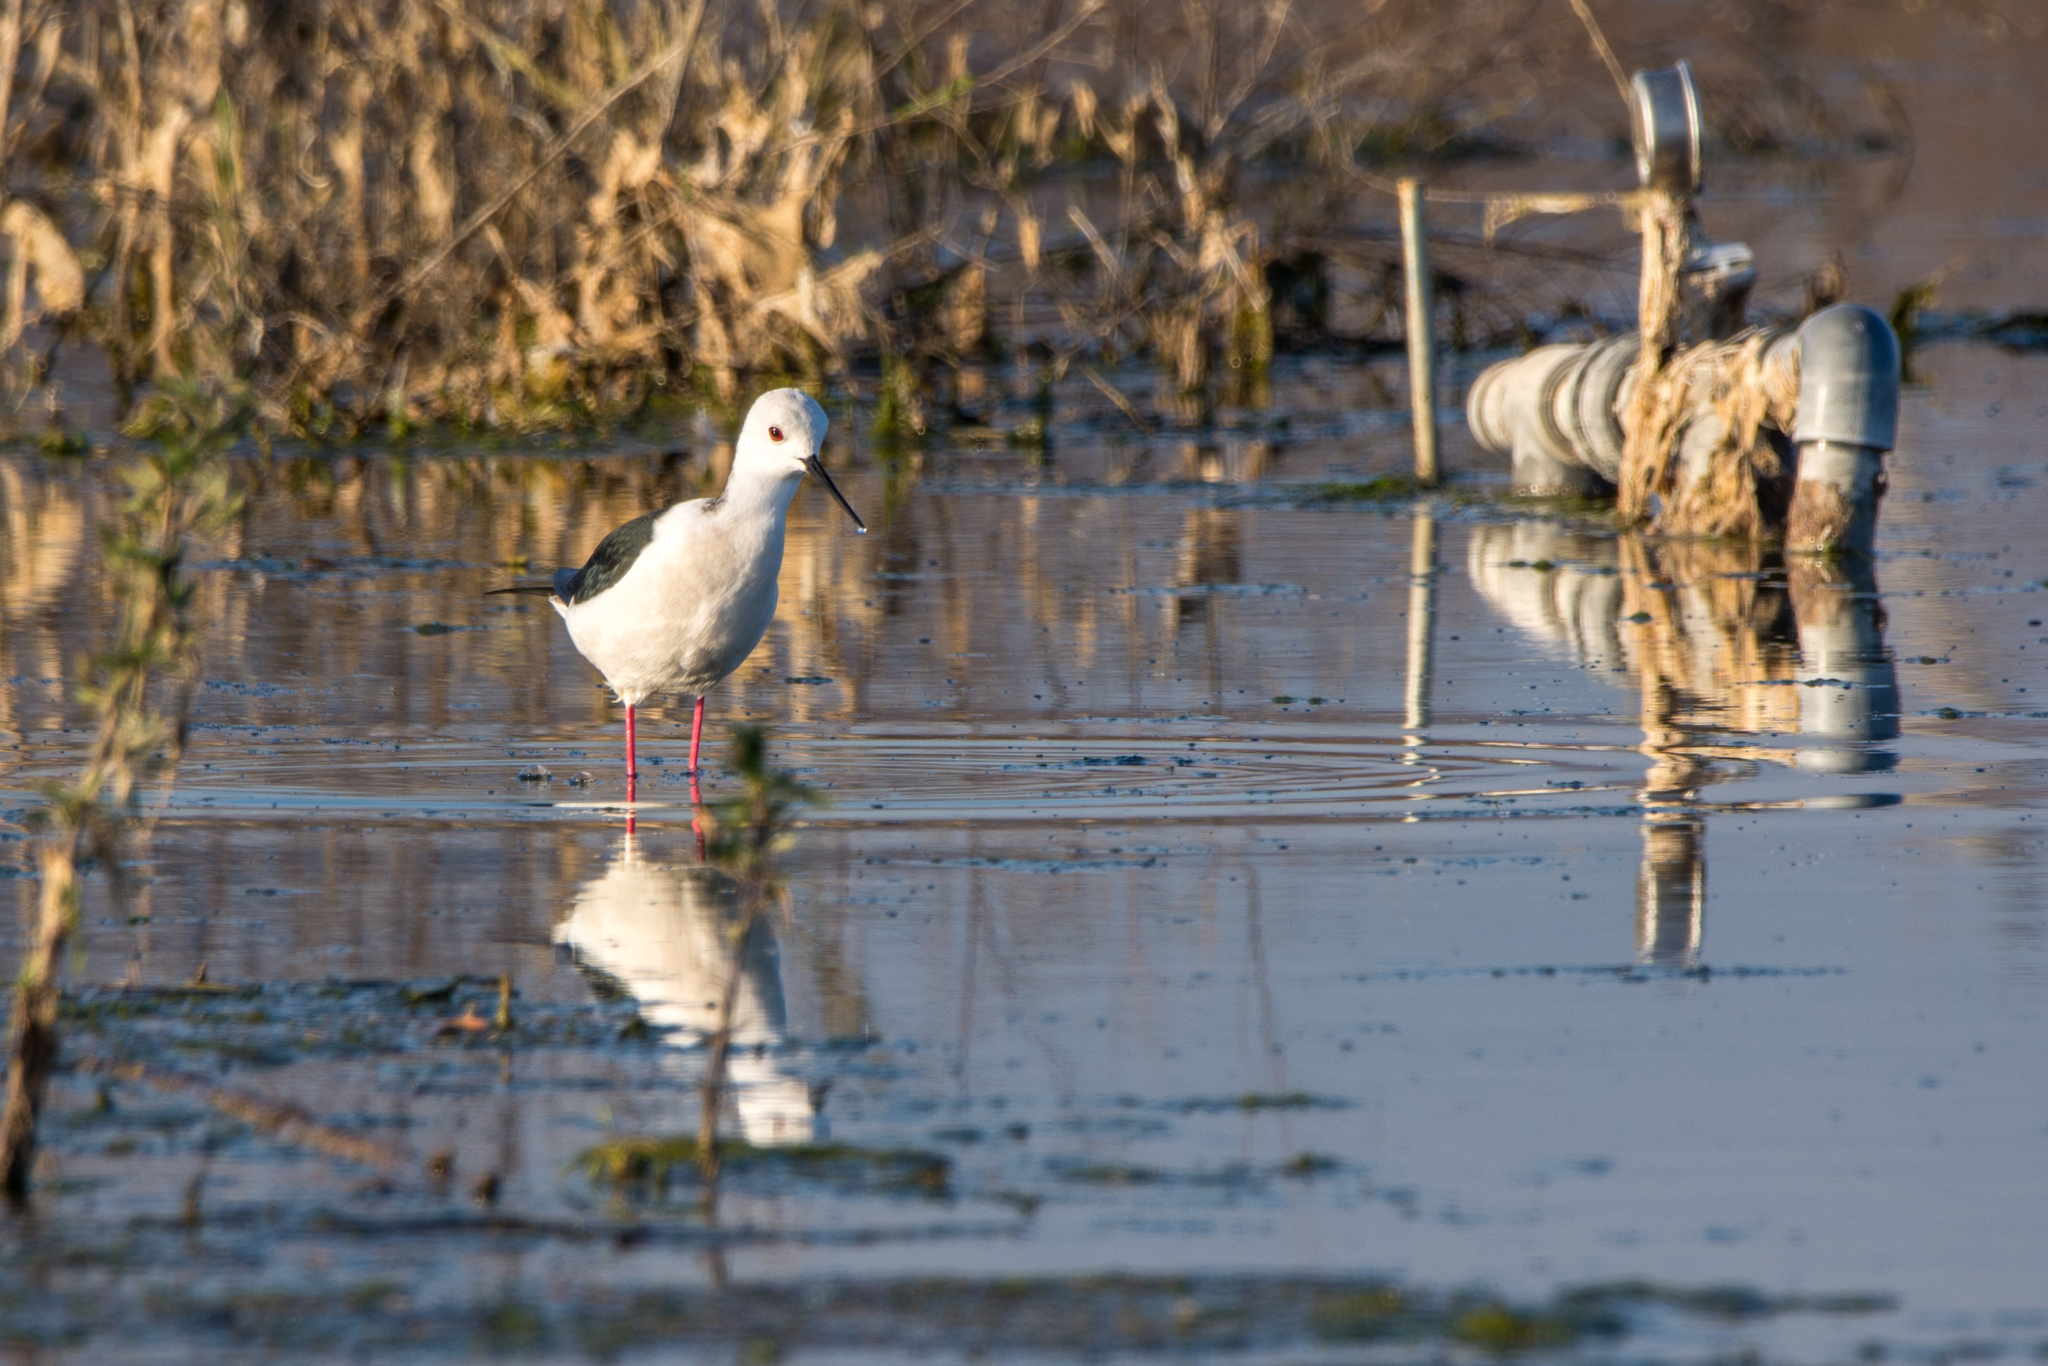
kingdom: Animalia
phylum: Chordata
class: Aves
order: Charadriiformes
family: Recurvirostridae
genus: Himantopus
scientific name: Himantopus himantopus
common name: Black-winged stilt
